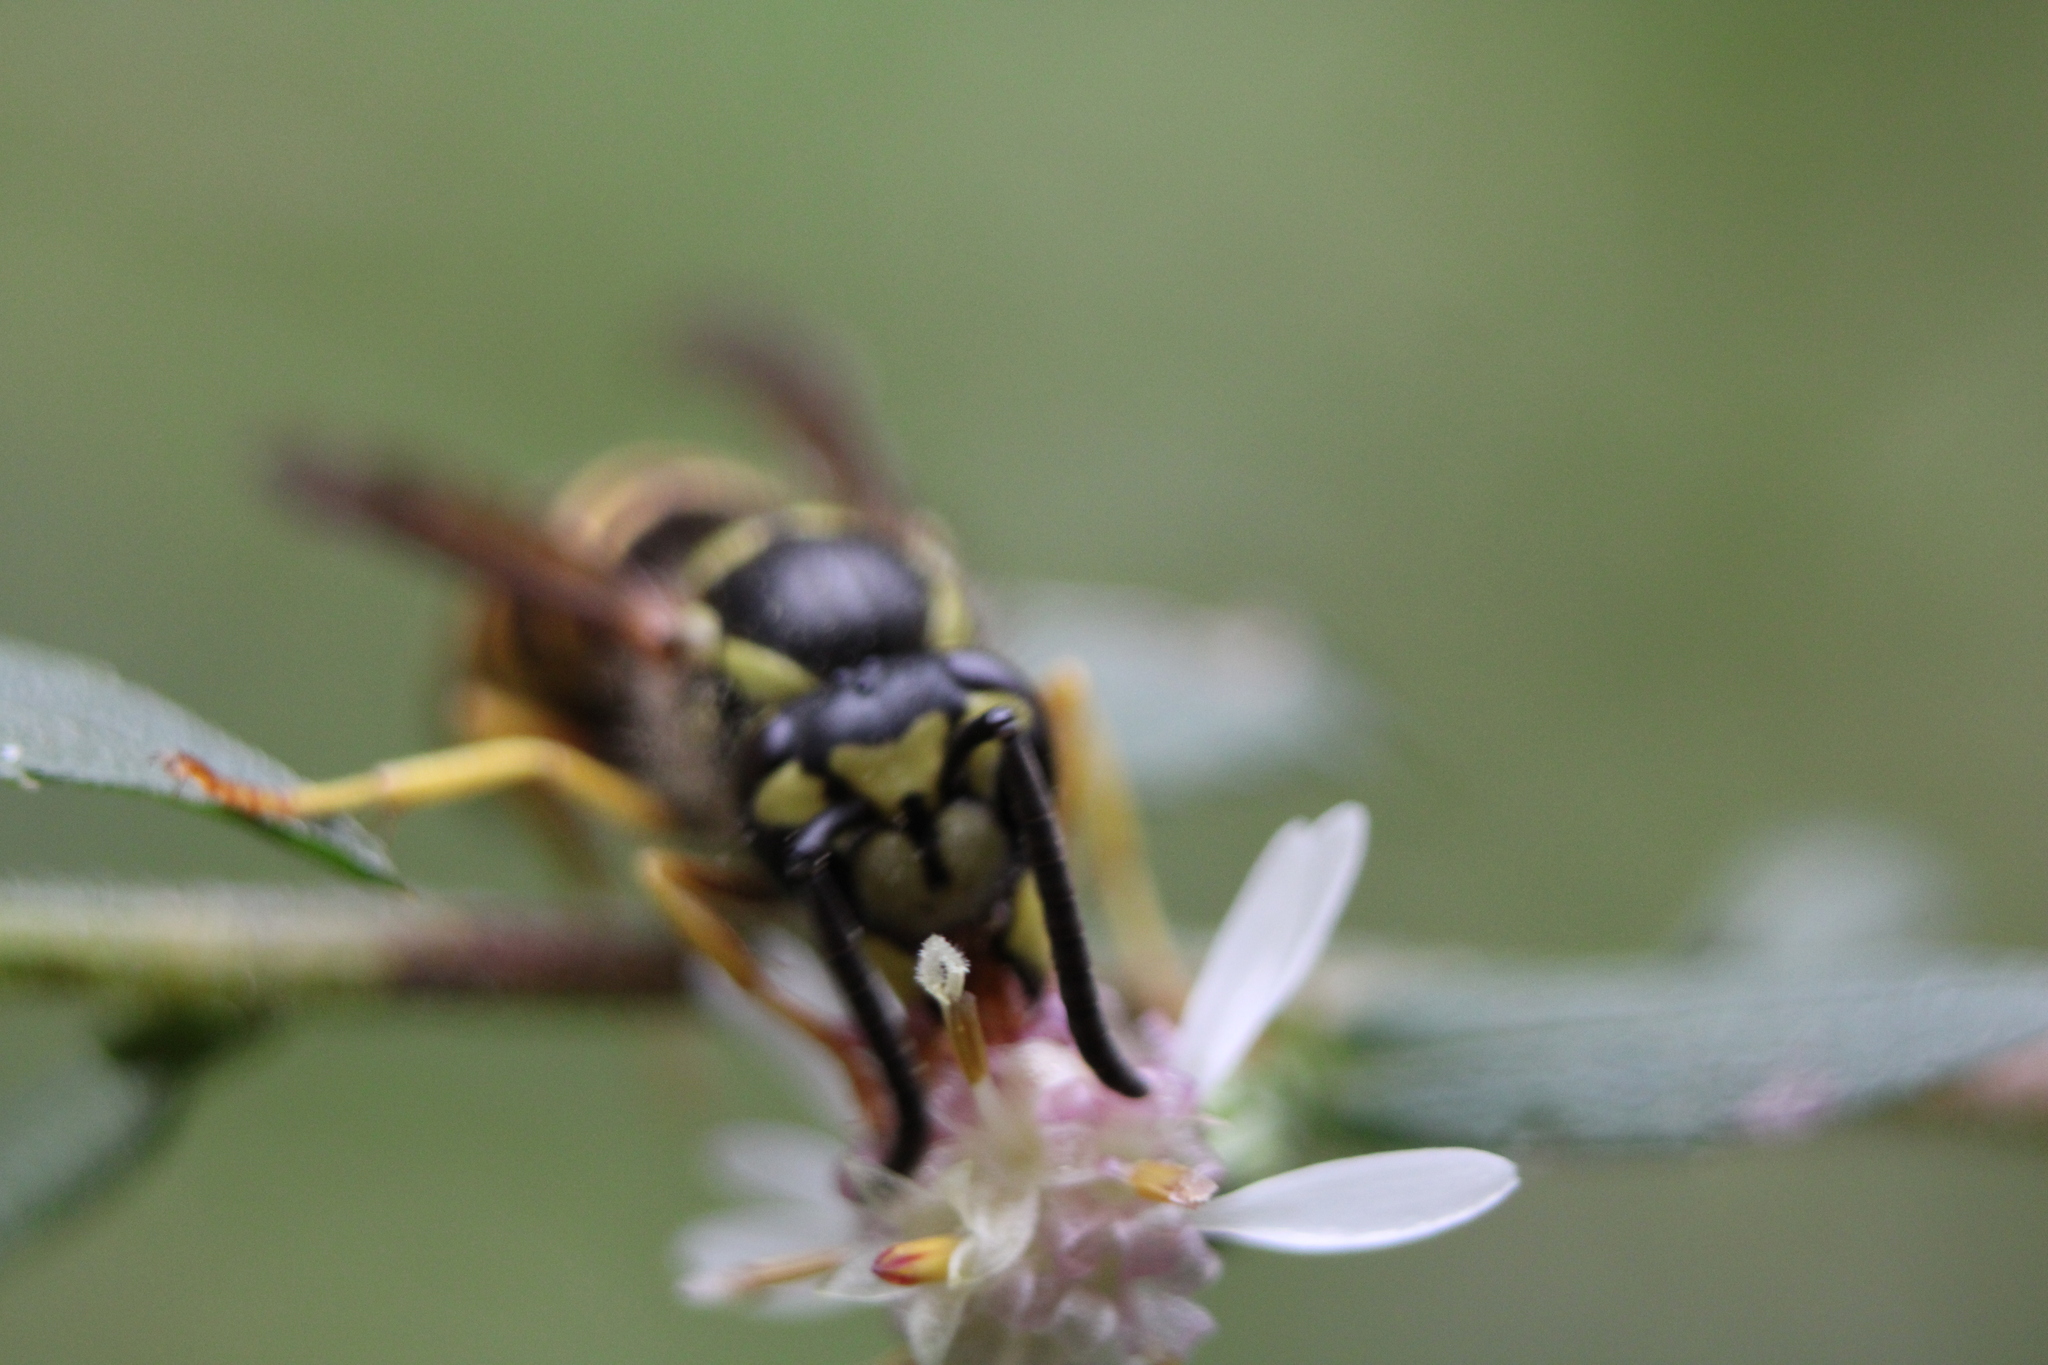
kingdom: Animalia
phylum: Arthropoda
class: Insecta
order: Hymenoptera
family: Vespidae
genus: Vespula
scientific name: Vespula maculifrons
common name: Eastern yellowjacket
